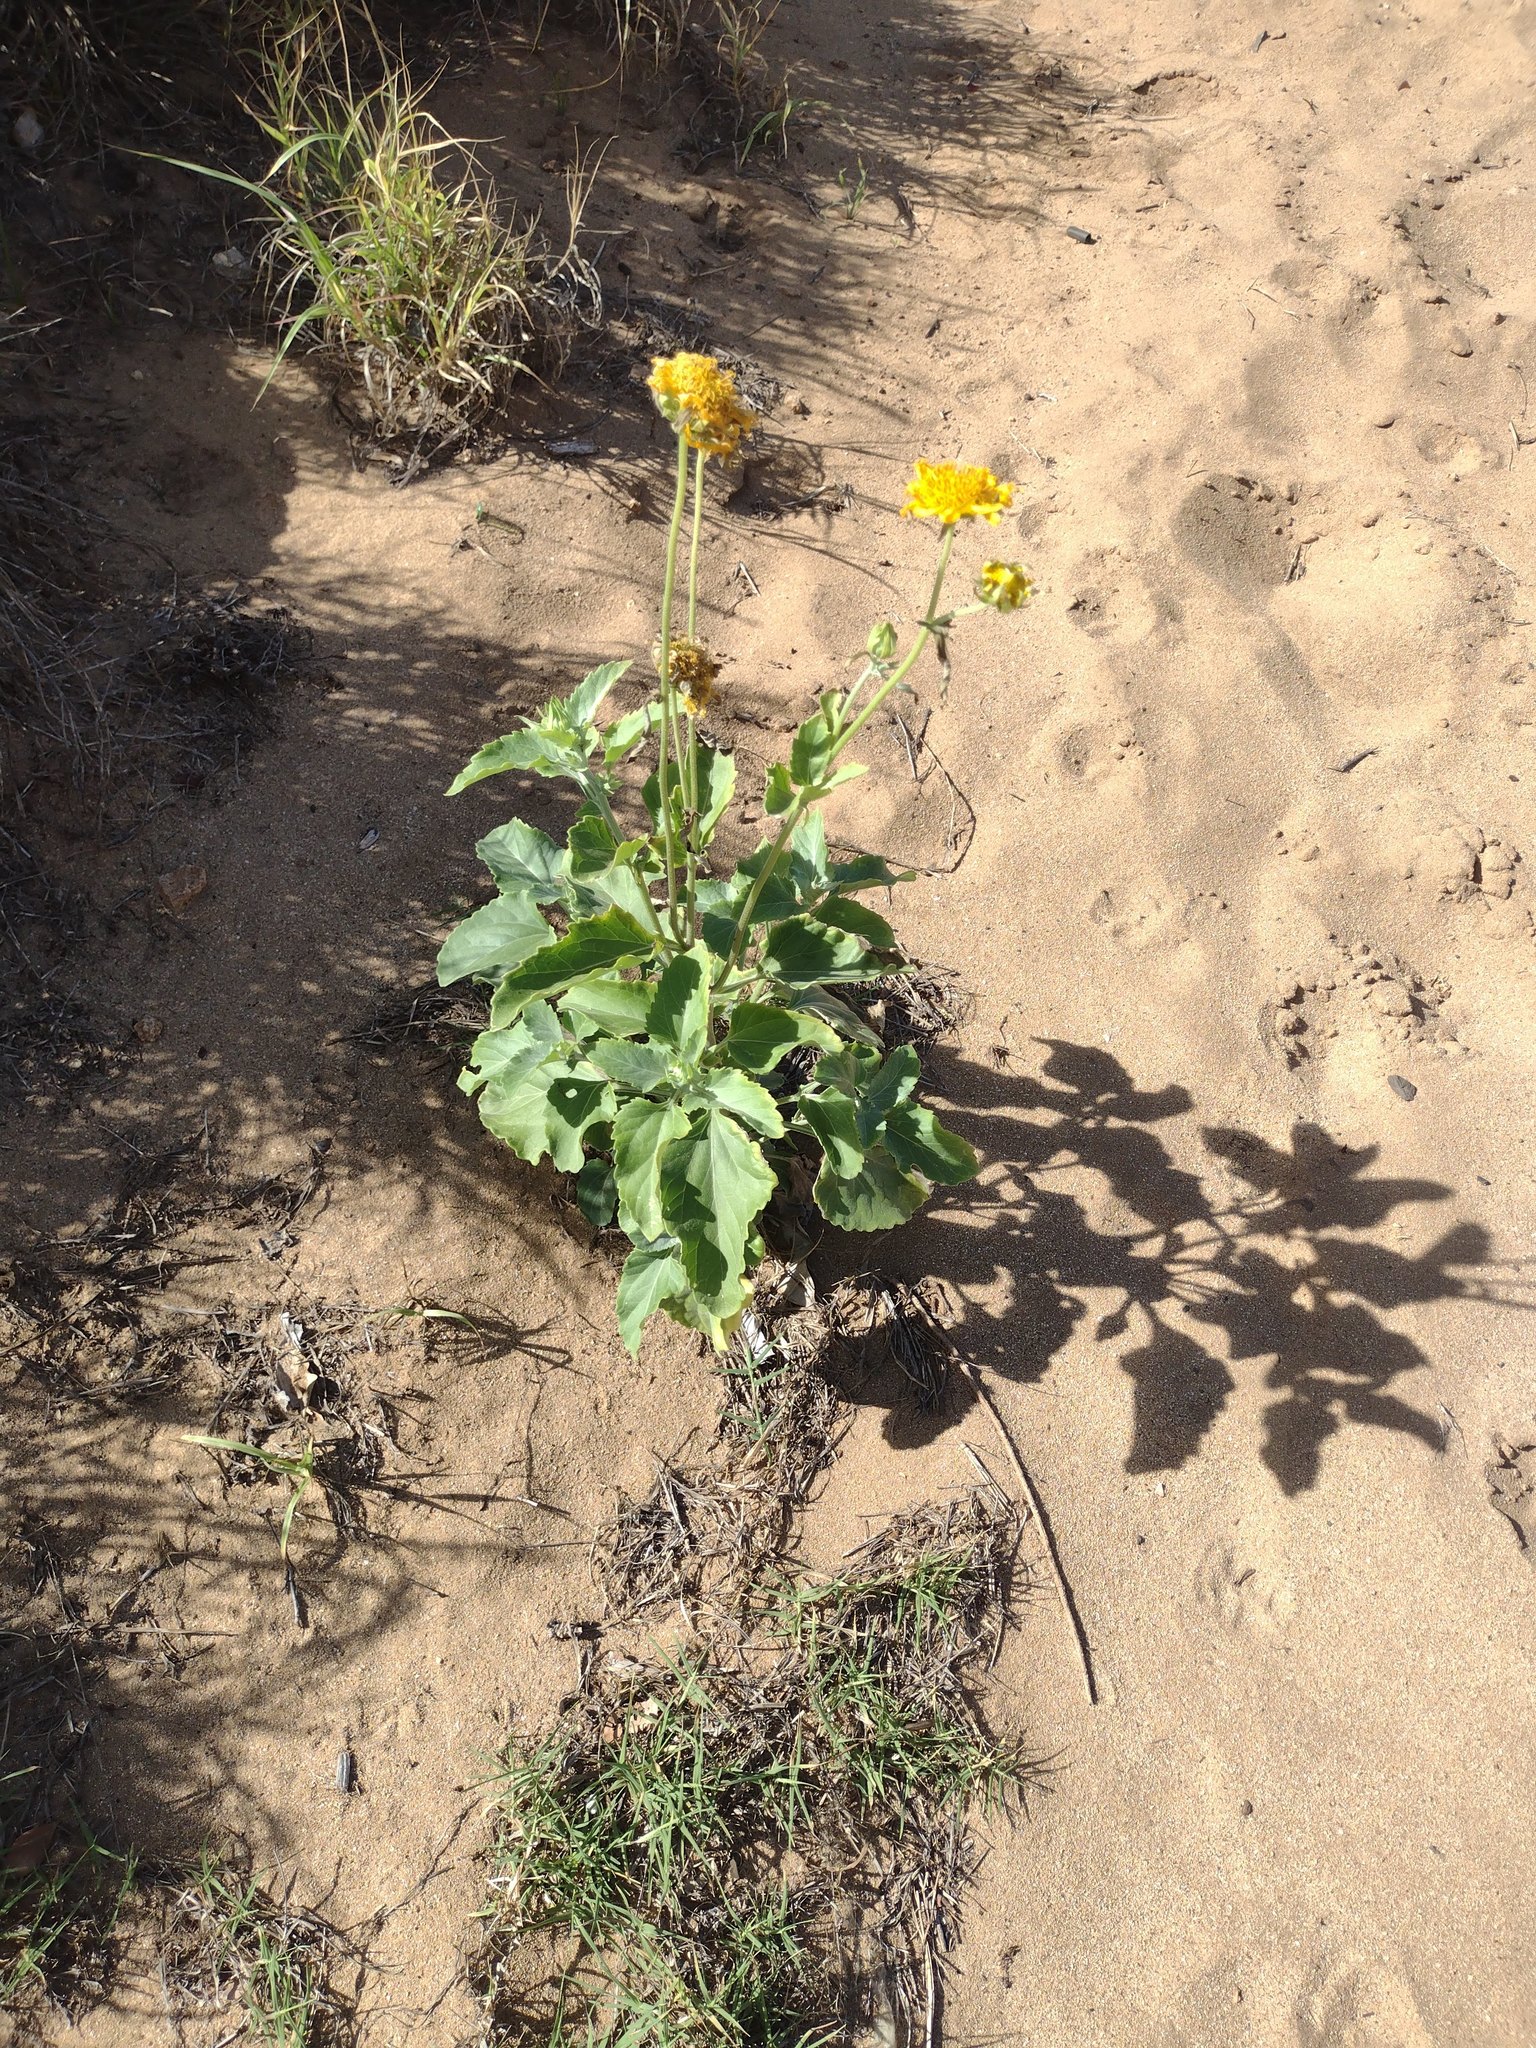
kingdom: Plantae
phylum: Tracheophyta
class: Magnoliopsida
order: Asterales
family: Asteraceae
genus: Verbesina
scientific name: Verbesina encelioides
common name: Golden crownbeard
